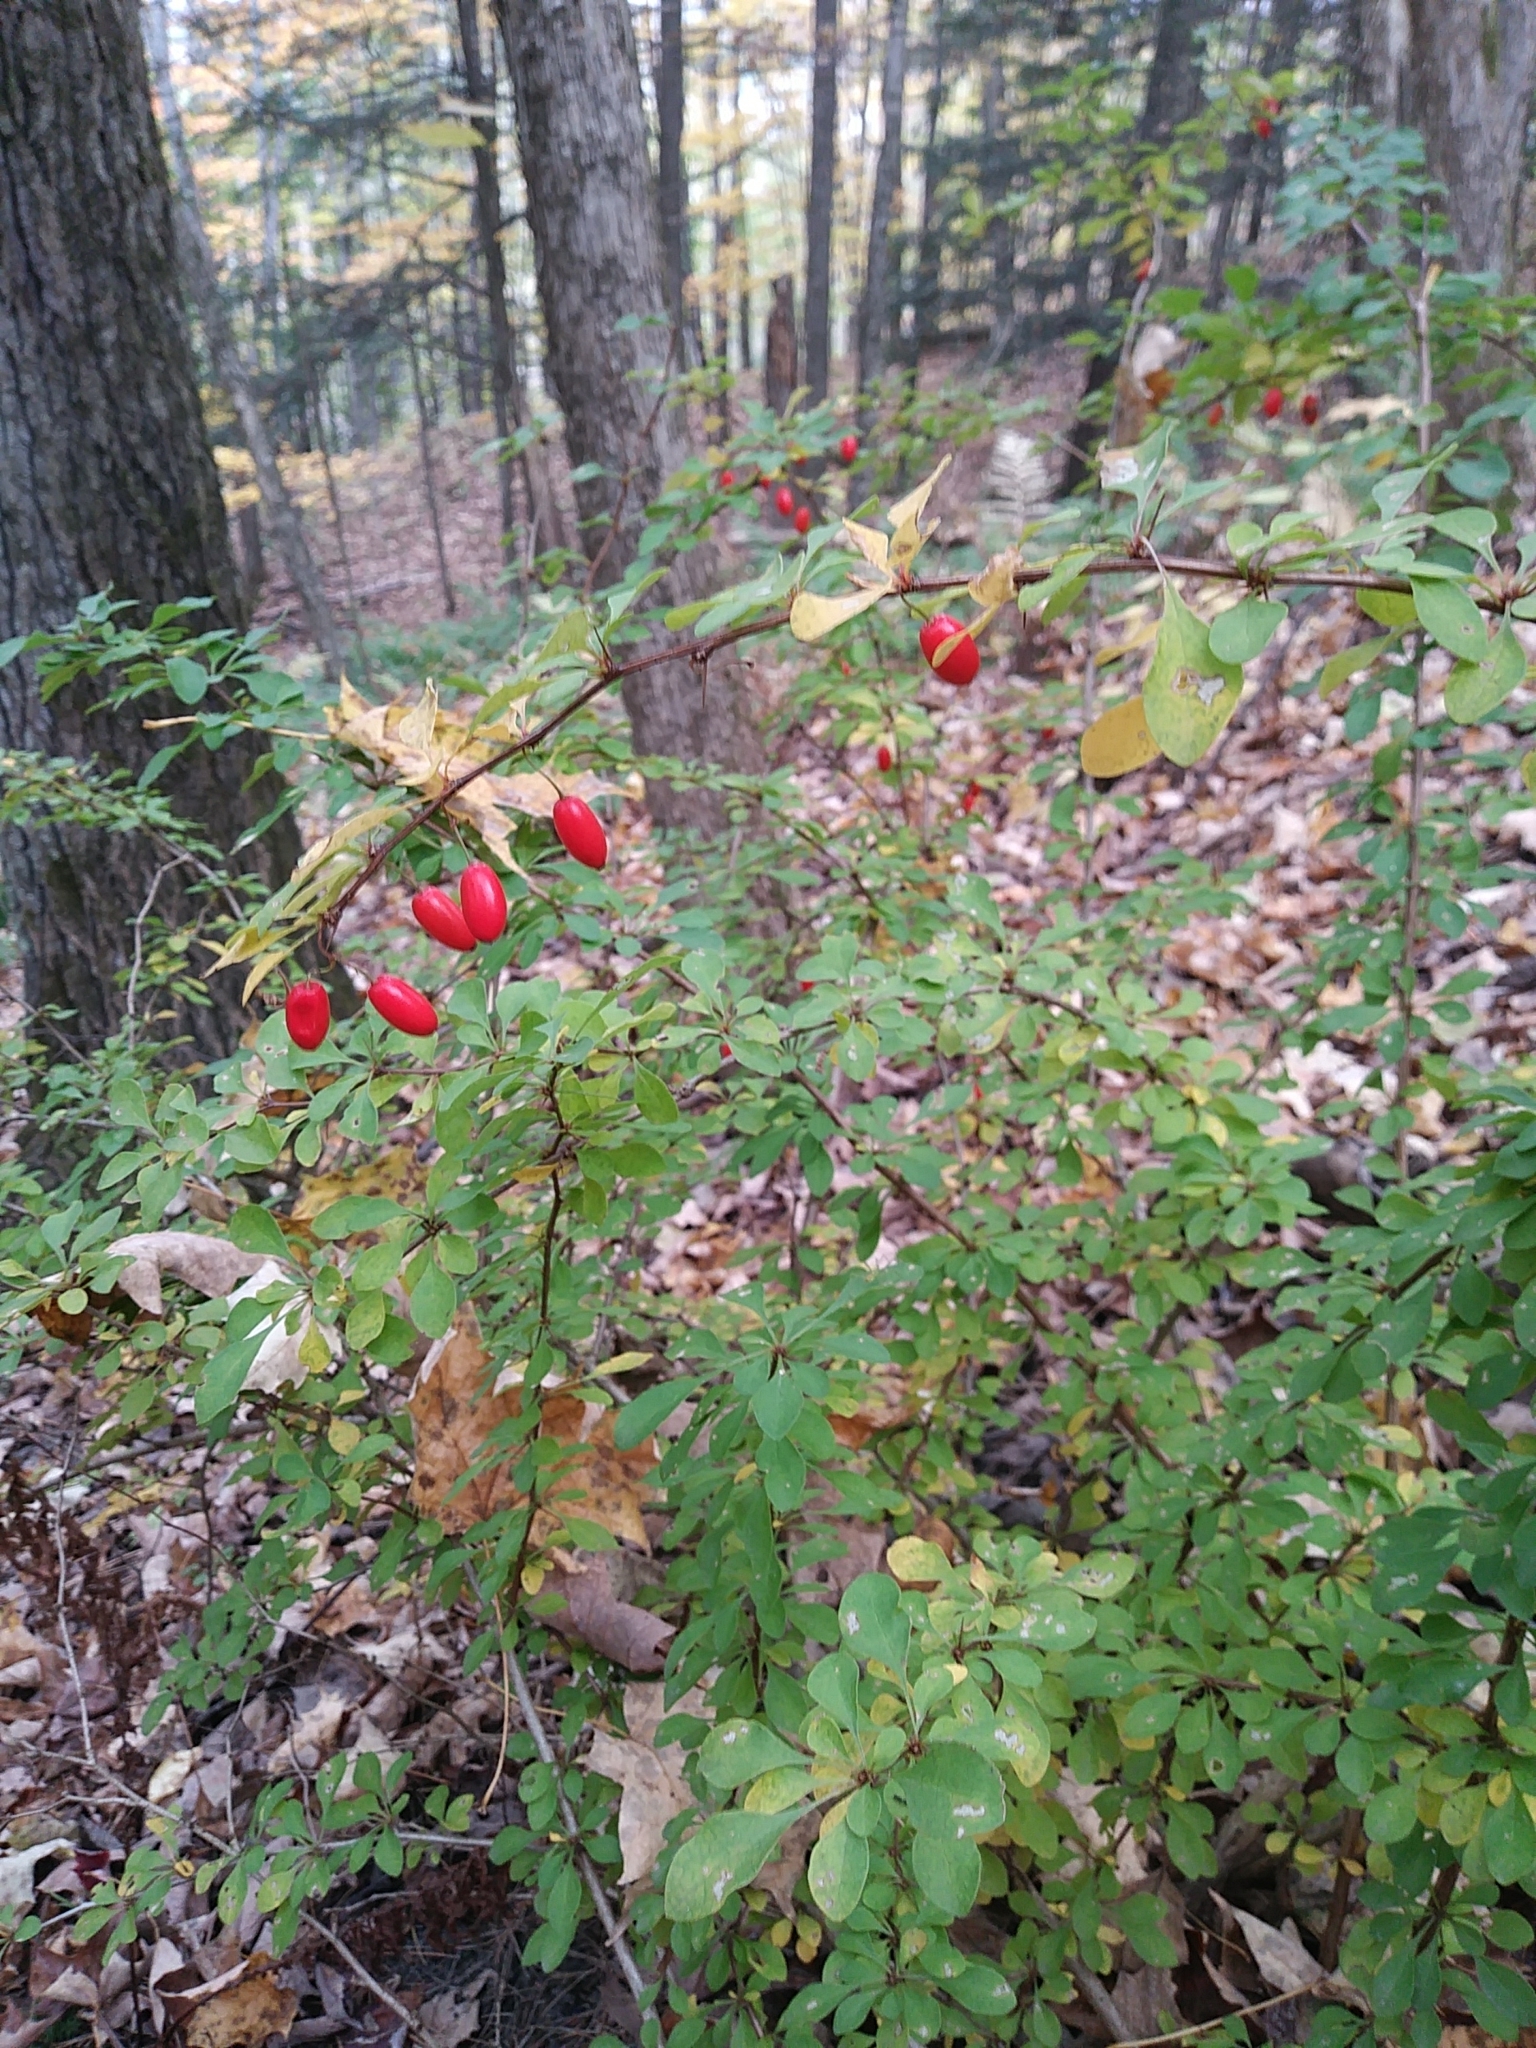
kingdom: Plantae
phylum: Tracheophyta
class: Magnoliopsida
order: Ranunculales
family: Berberidaceae
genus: Berberis
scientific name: Berberis thunbergii
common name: Japanese barberry
